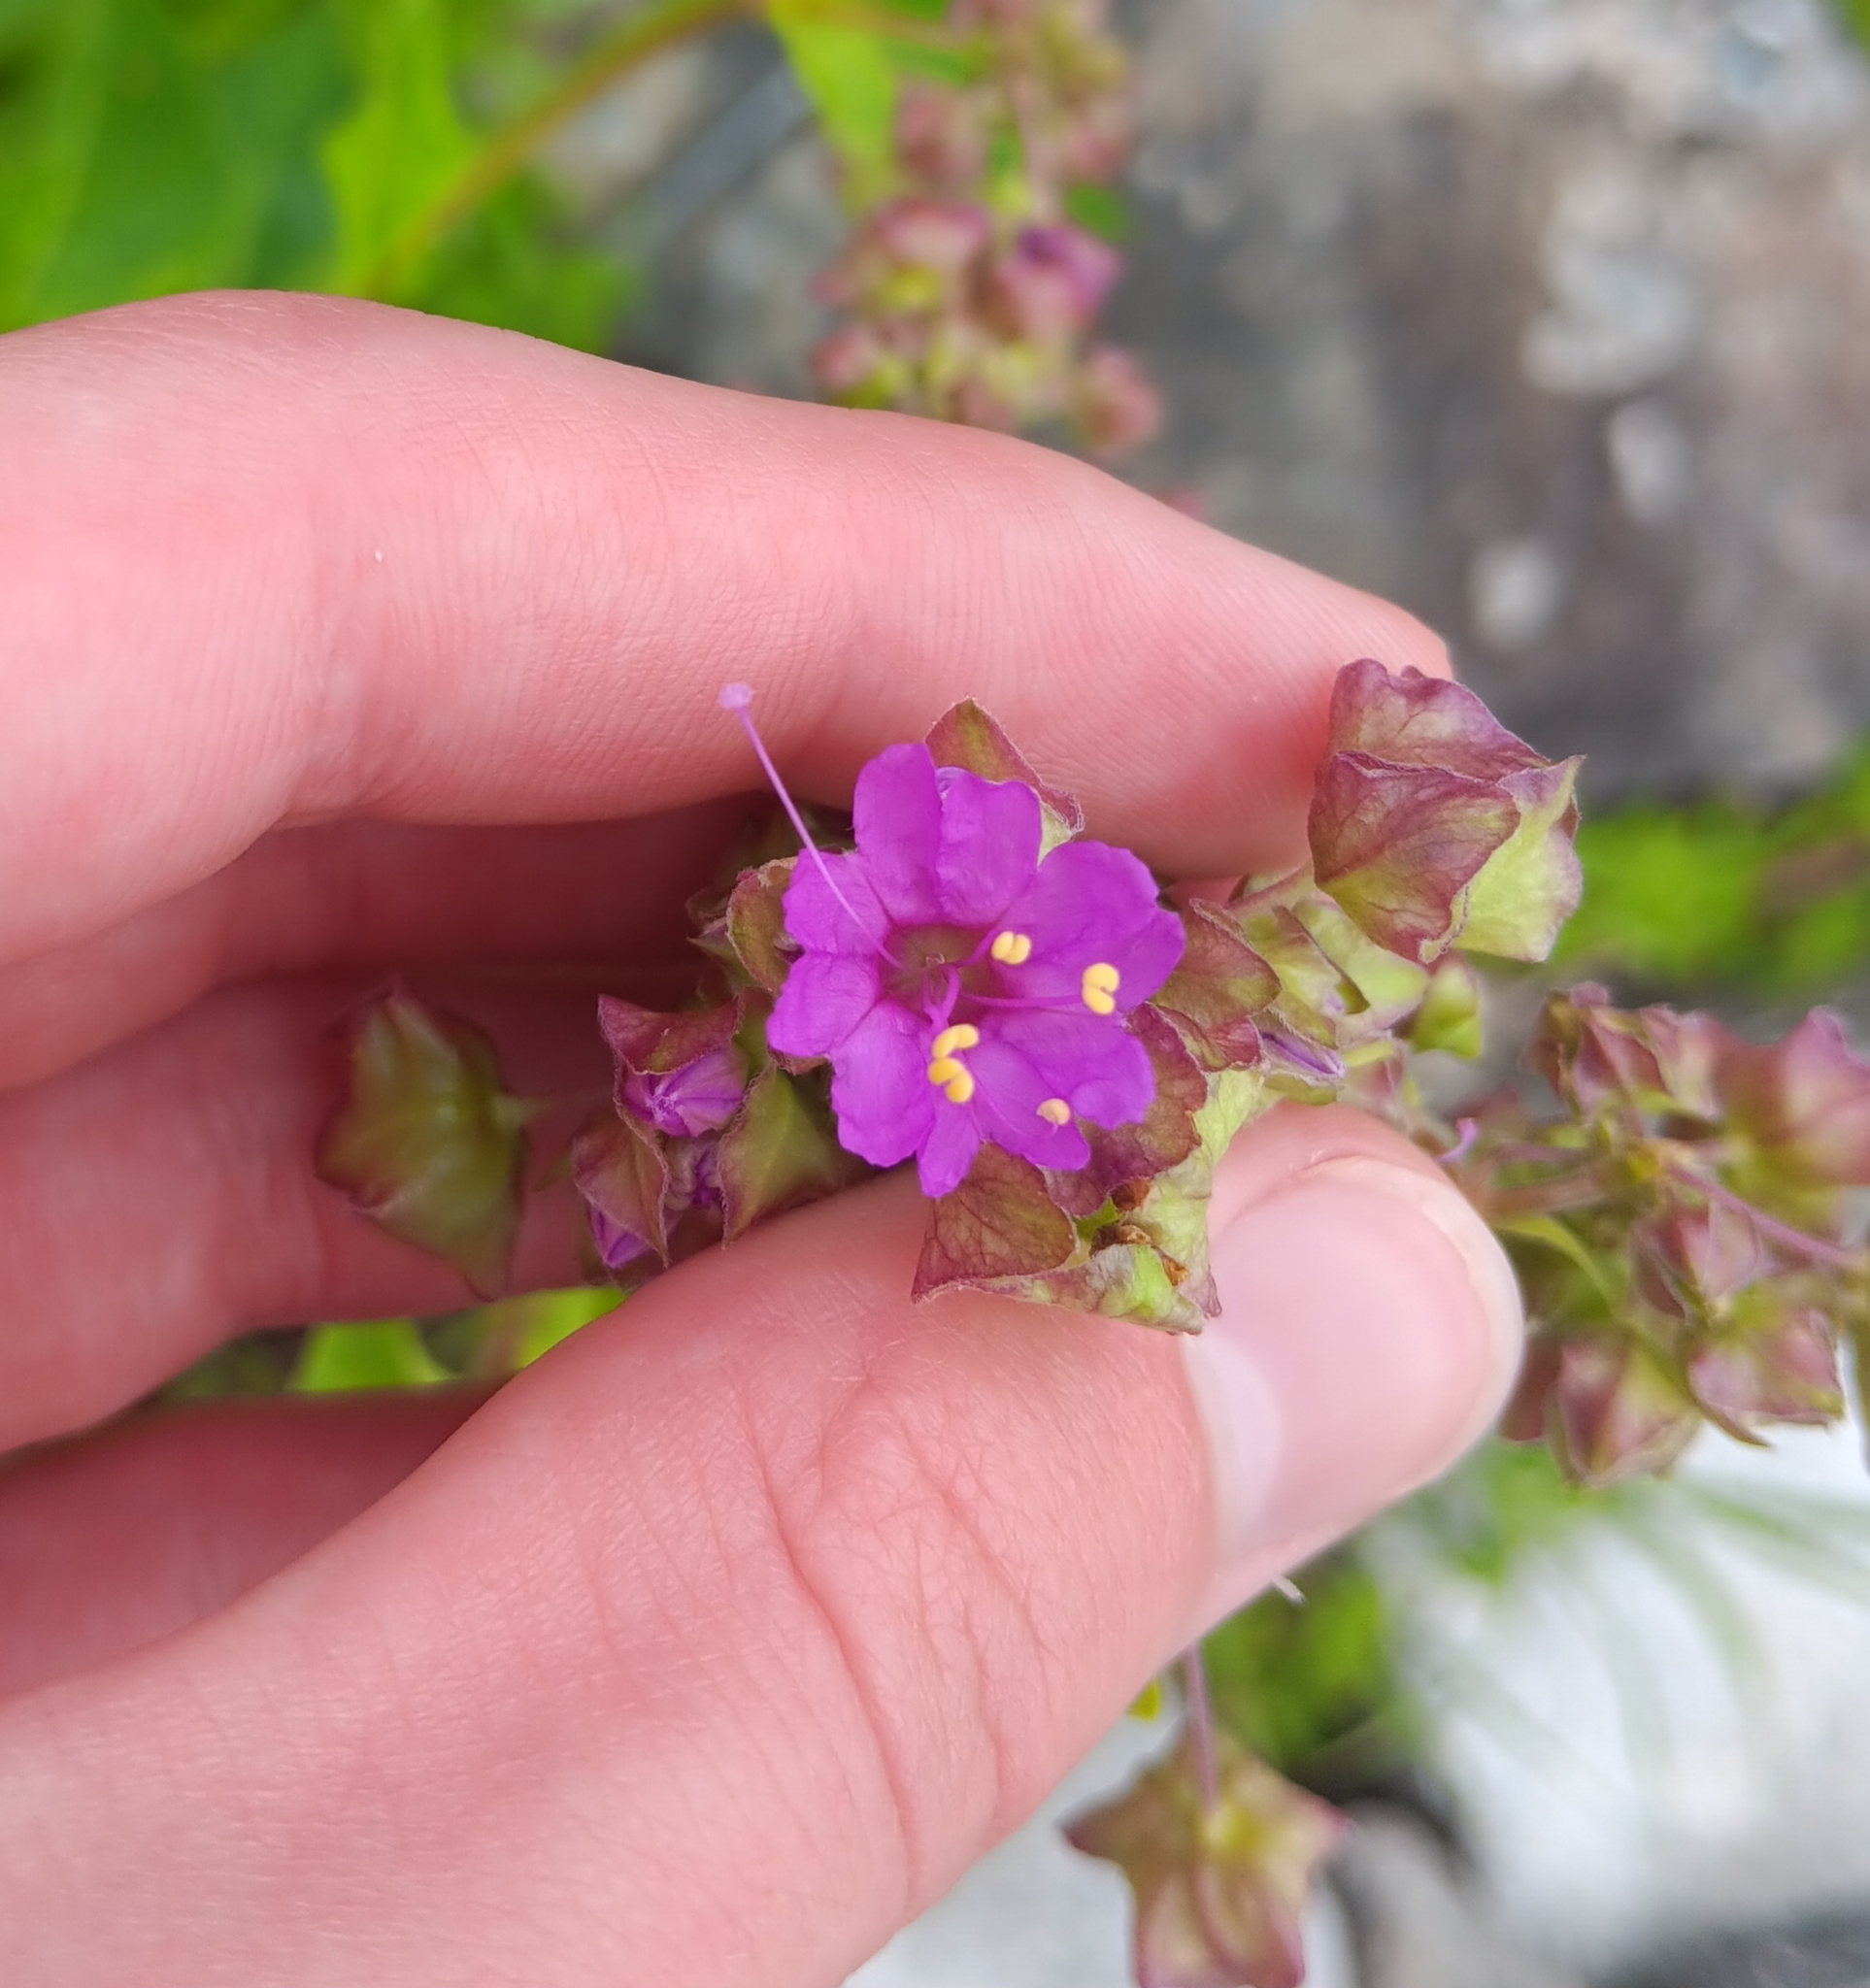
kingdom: Plantae
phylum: Tracheophyta
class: Magnoliopsida
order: Caryophyllales
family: Nyctaginaceae
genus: Mirabilis
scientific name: Mirabilis nyctaginea
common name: Umbrella wort
